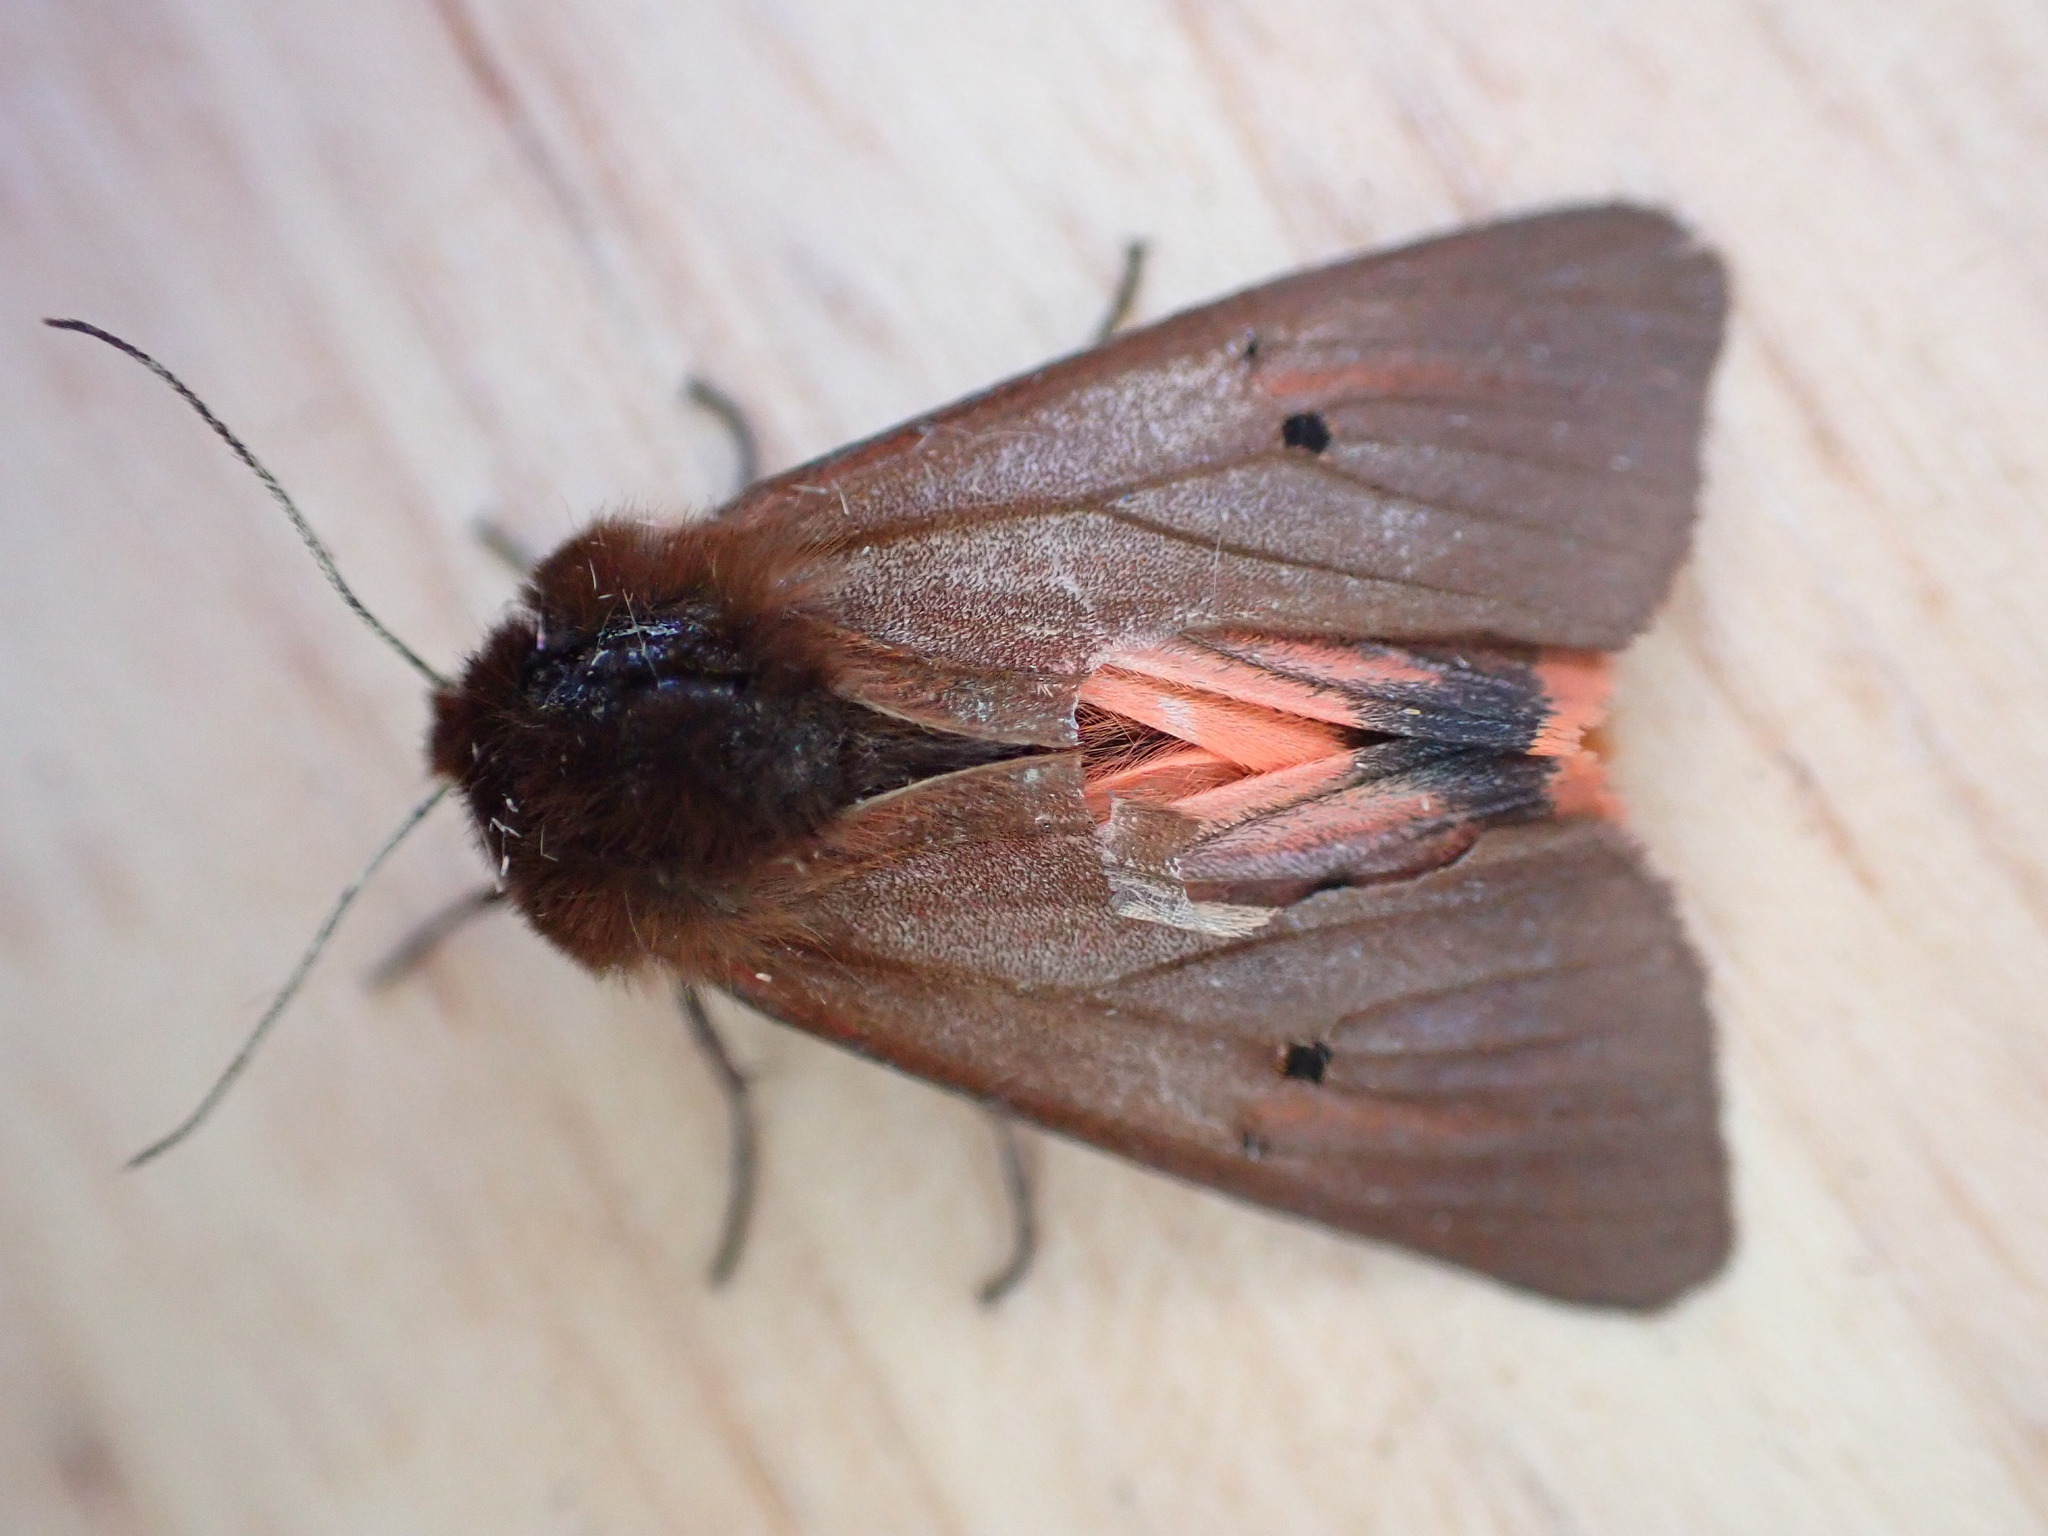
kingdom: Animalia
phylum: Arthropoda
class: Insecta
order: Lepidoptera
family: Erebidae
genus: Phragmatobia
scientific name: Phragmatobia fuliginosa
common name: Ruby tiger
